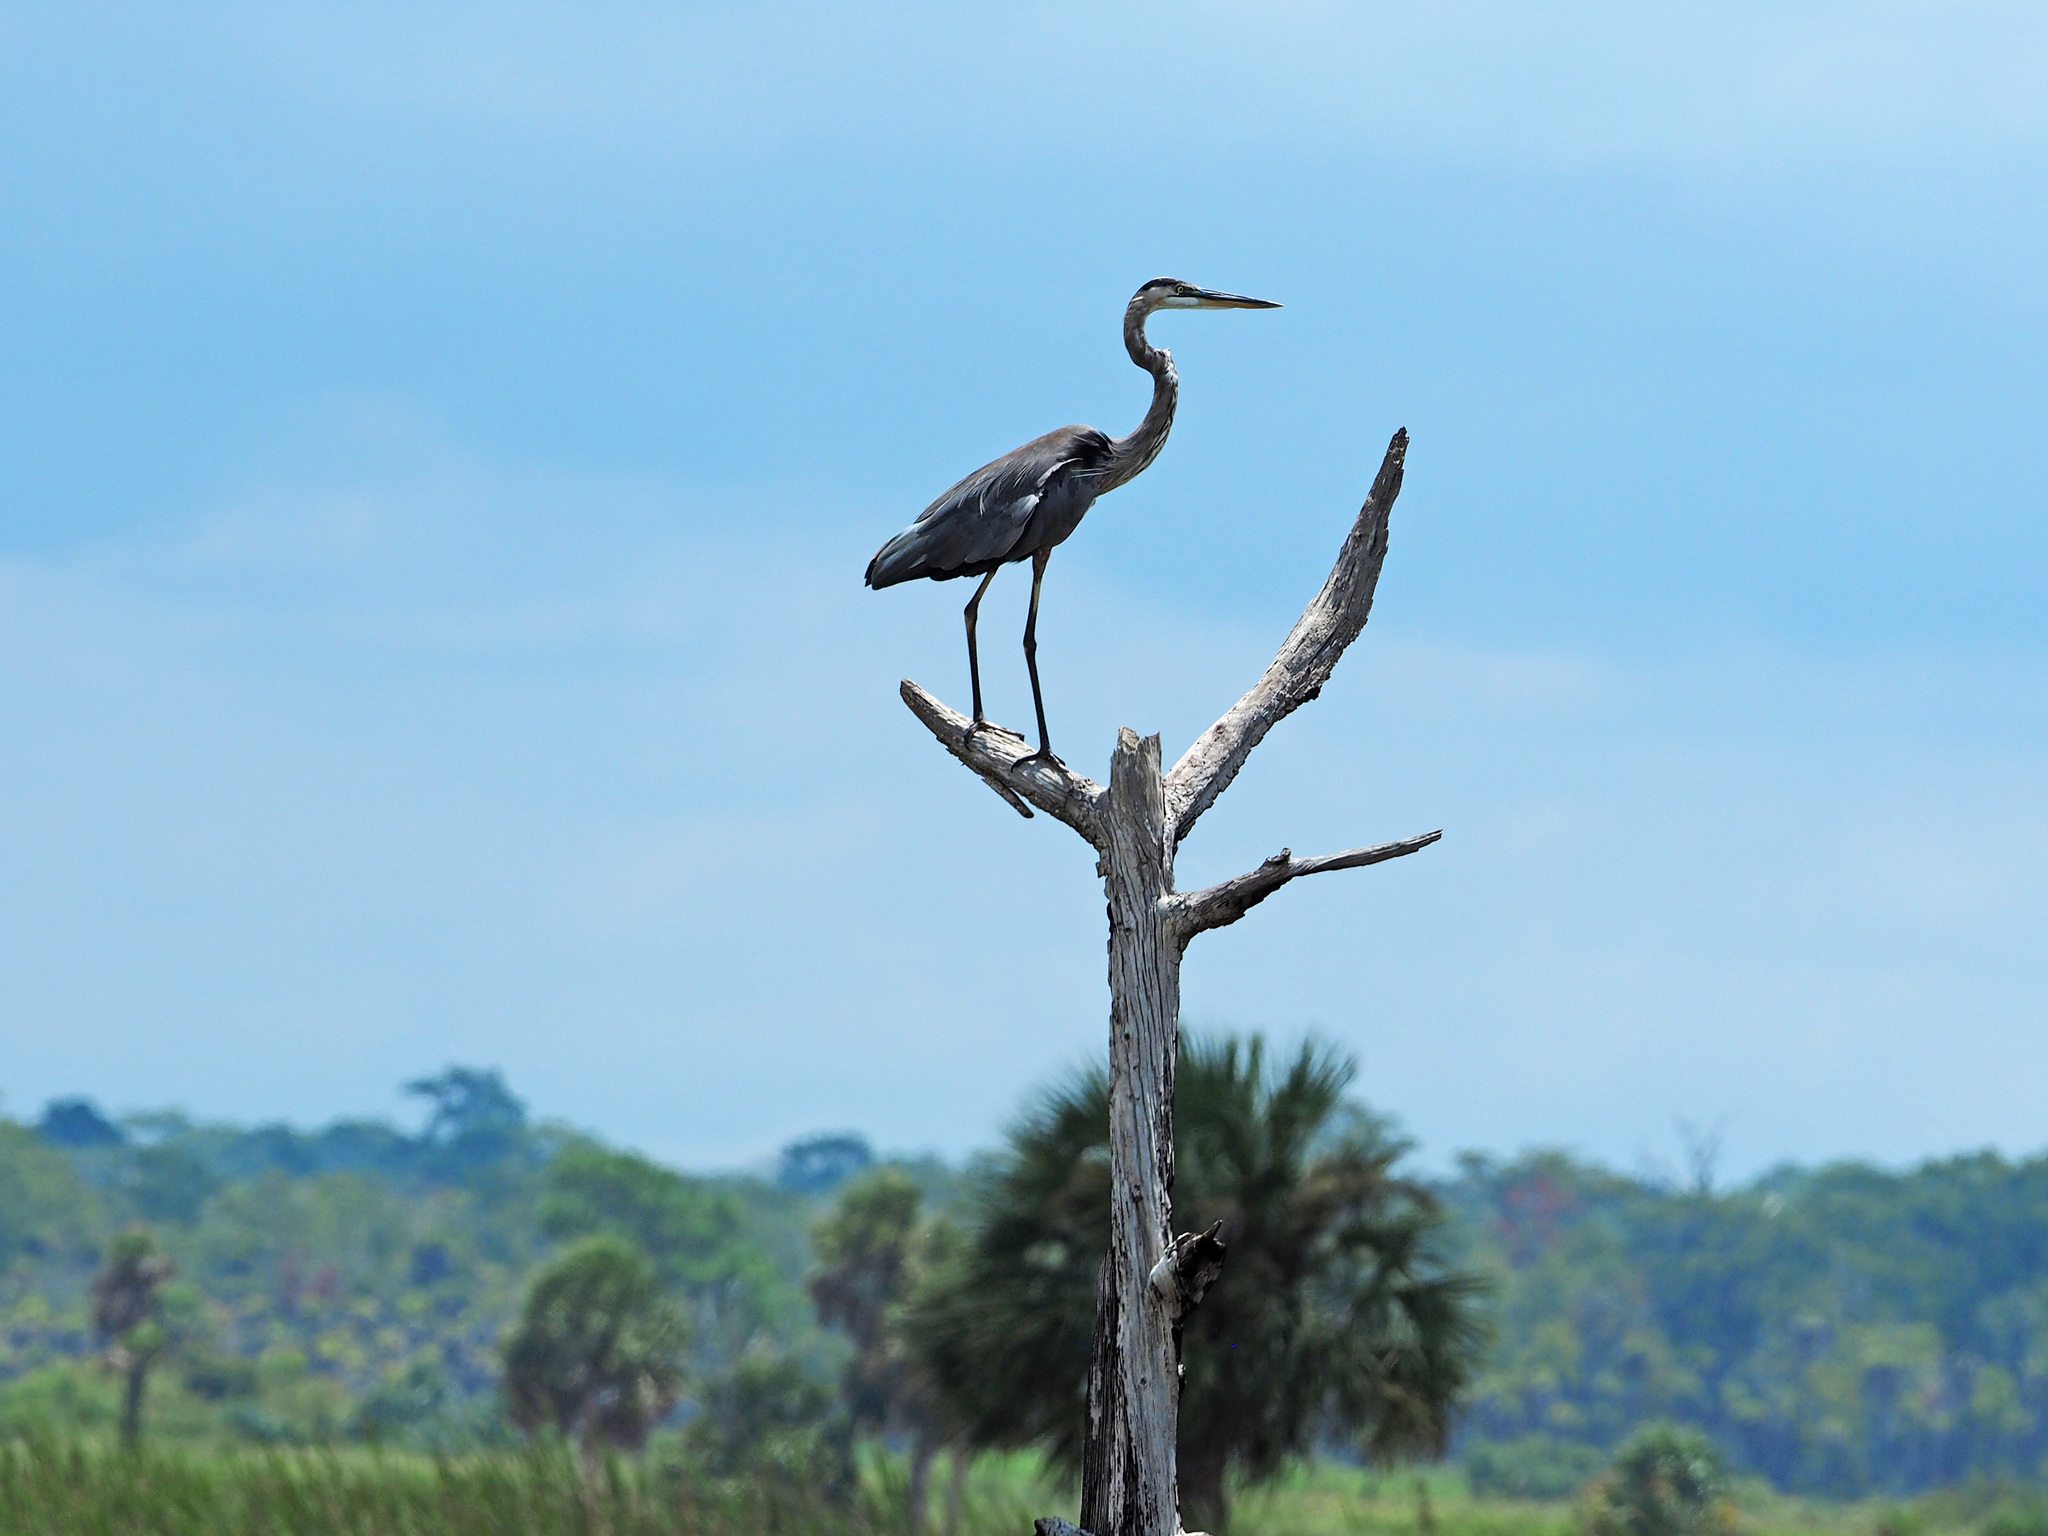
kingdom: Animalia
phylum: Chordata
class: Aves
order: Pelecaniformes
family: Ardeidae
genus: Ardea
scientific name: Ardea herodias
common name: Great blue heron
